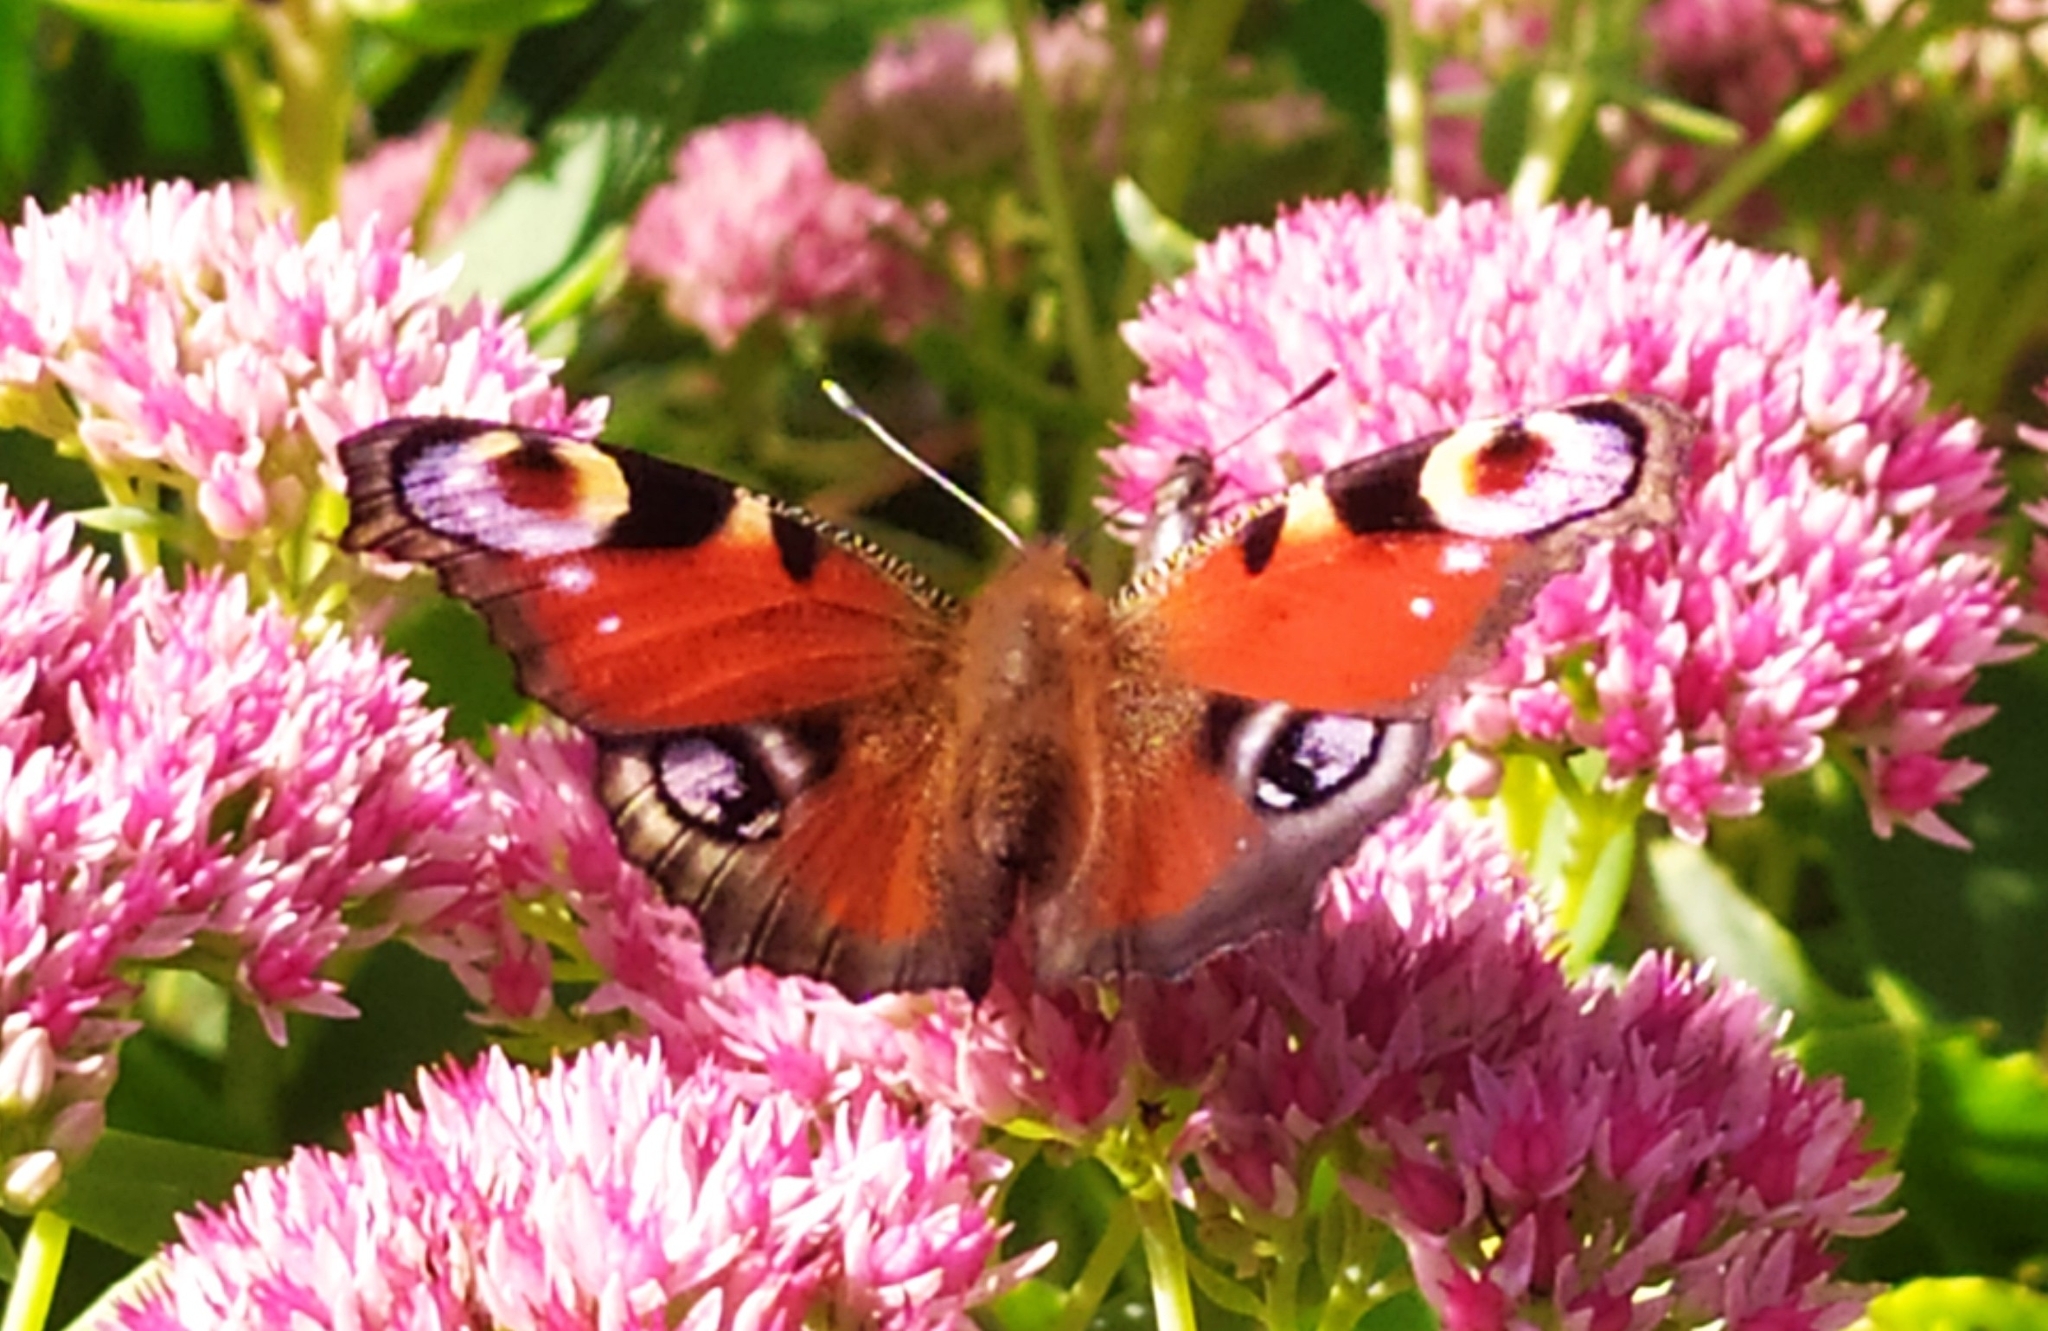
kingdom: Animalia
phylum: Arthropoda
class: Insecta
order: Lepidoptera
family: Nymphalidae
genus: Aglais
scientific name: Aglais io
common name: Peacock
